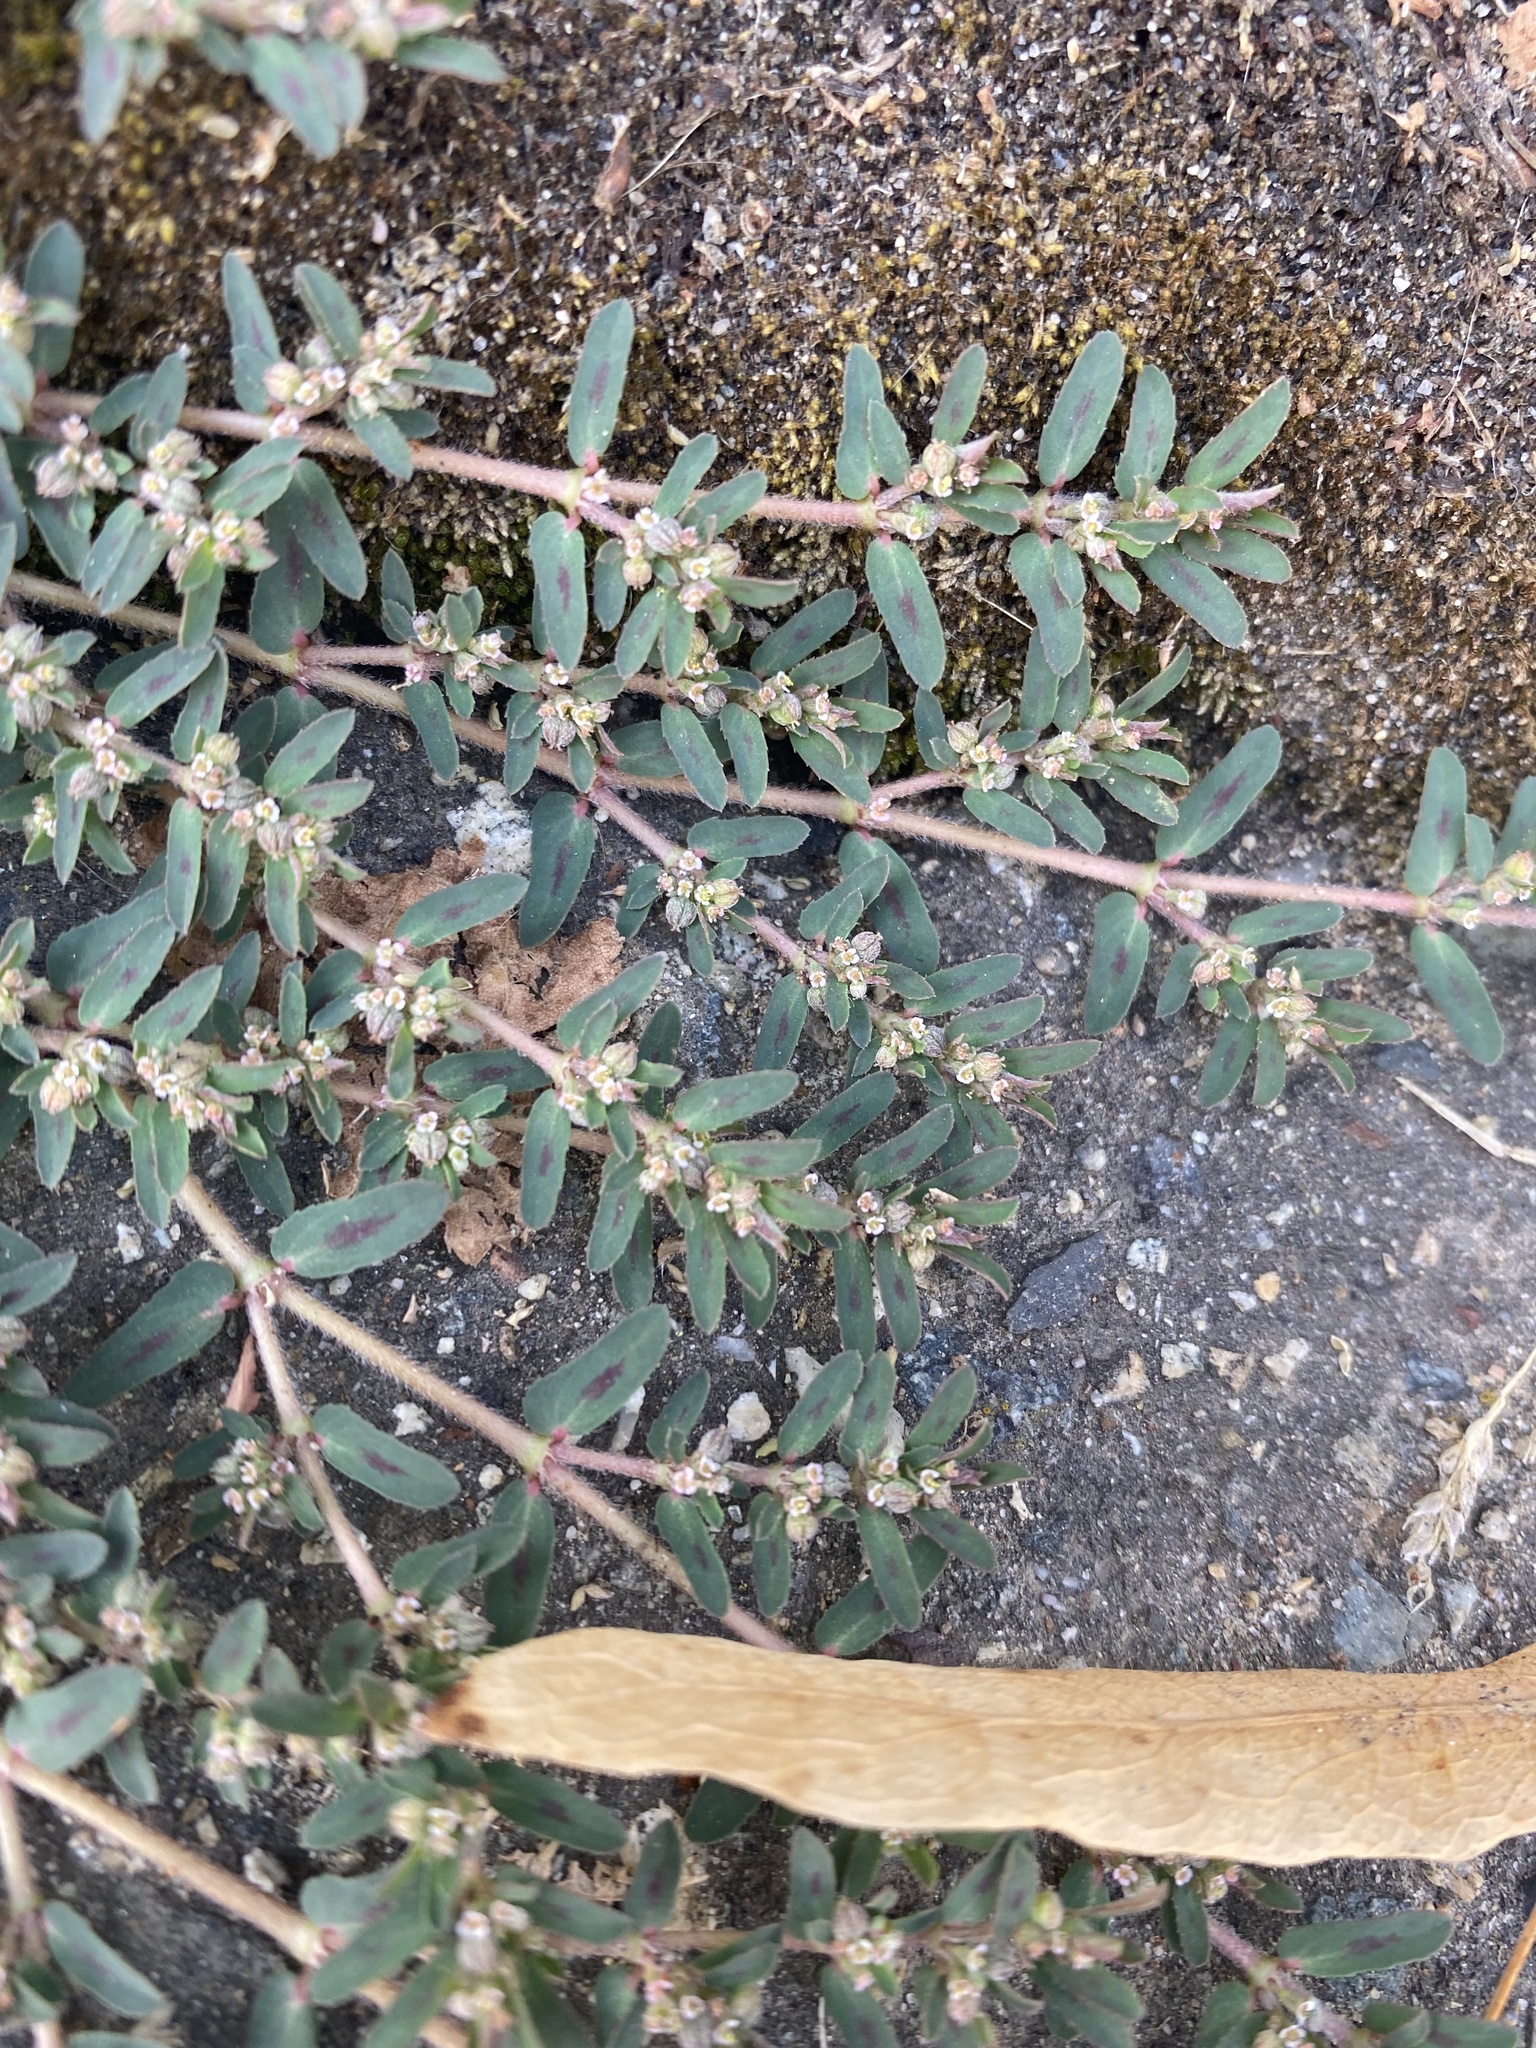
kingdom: Plantae
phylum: Tracheophyta
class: Magnoliopsida
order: Malpighiales
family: Euphorbiaceae
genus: Euphorbia
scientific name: Euphorbia maculata
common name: Spotted spurge
